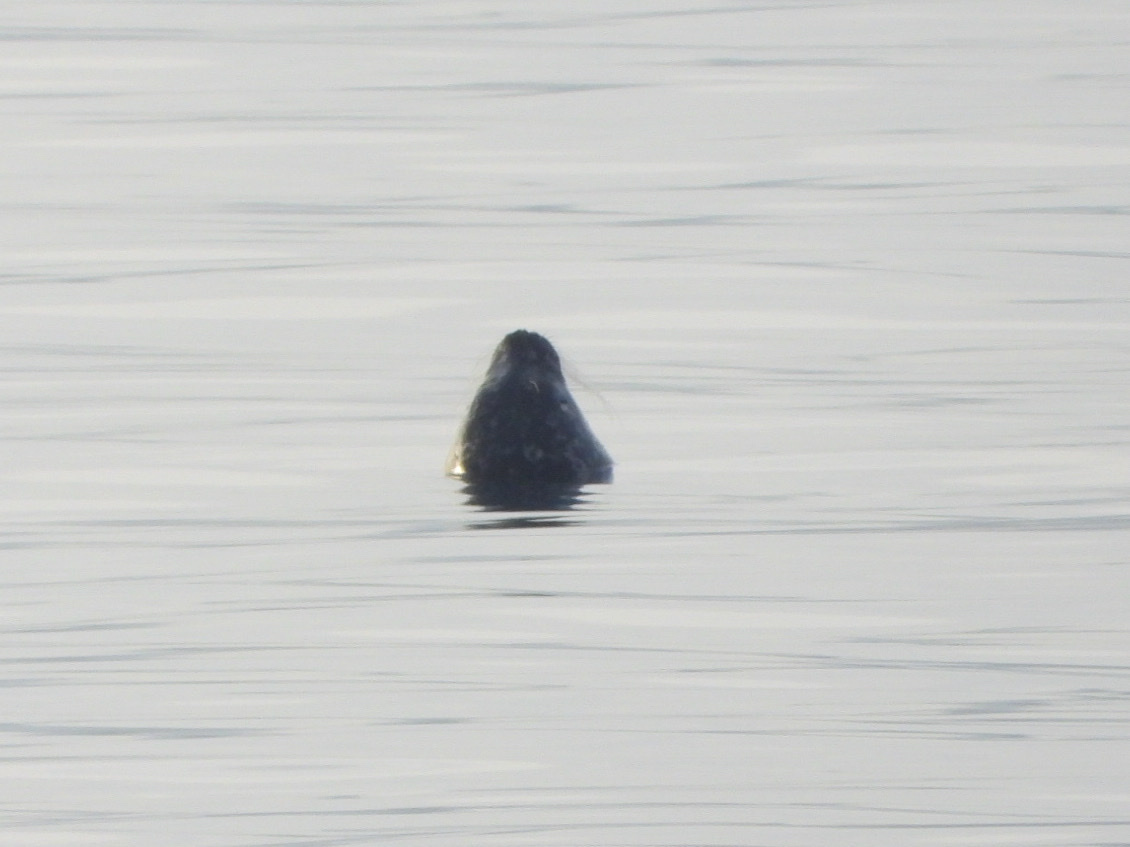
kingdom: Animalia
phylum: Chordata
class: Mammalia
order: Carnivora
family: Phocidae
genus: Phoca
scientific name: Phoca vitulina
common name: Harbor seal
